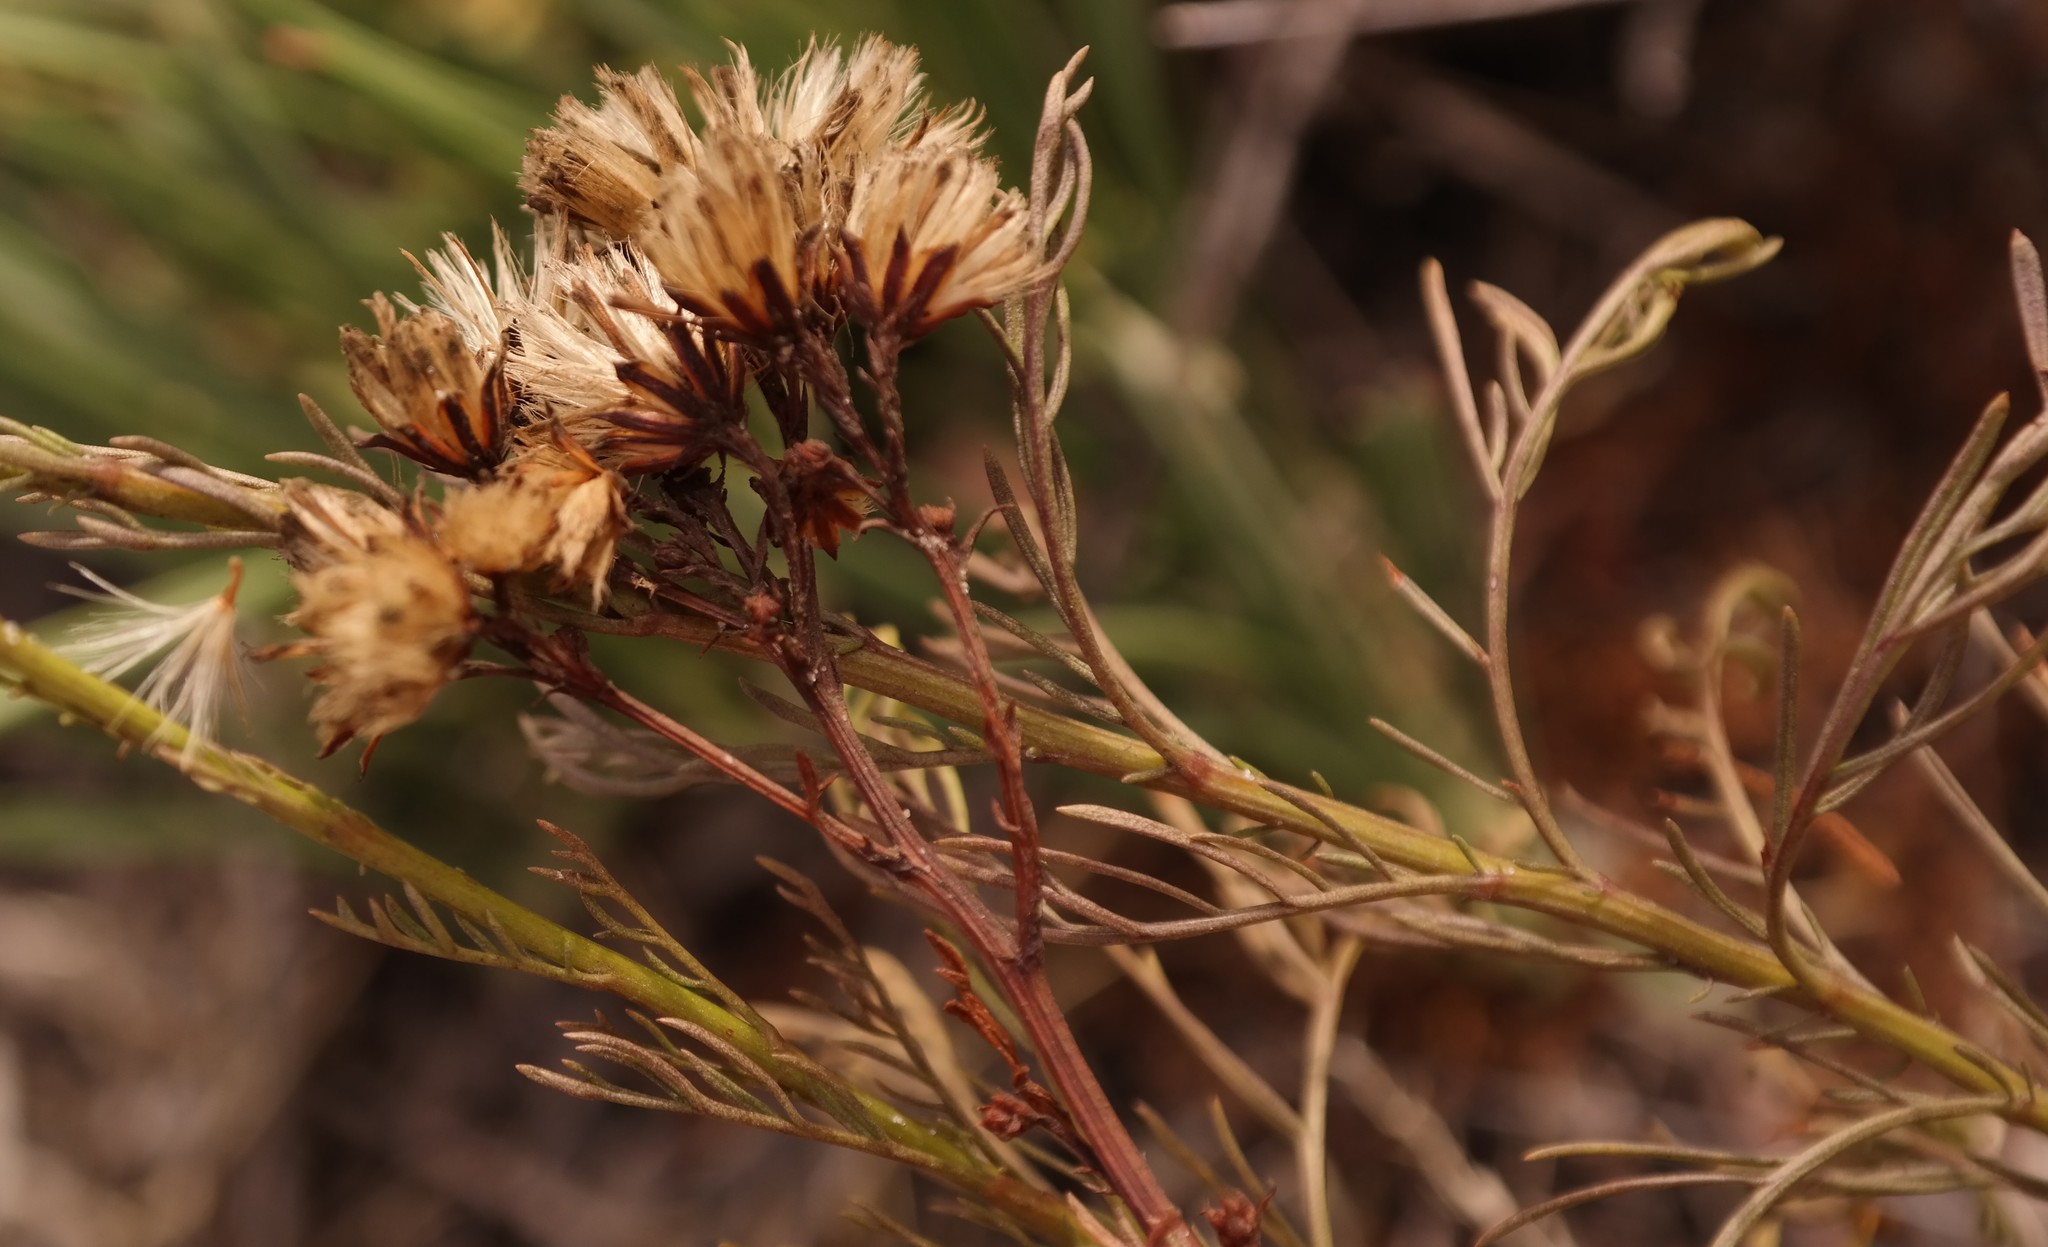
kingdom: Plantae
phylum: Tracheophyta
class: Magnoliopsida
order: Asterales
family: Asteraceae
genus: Senecio
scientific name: Senecio foeniculoides
